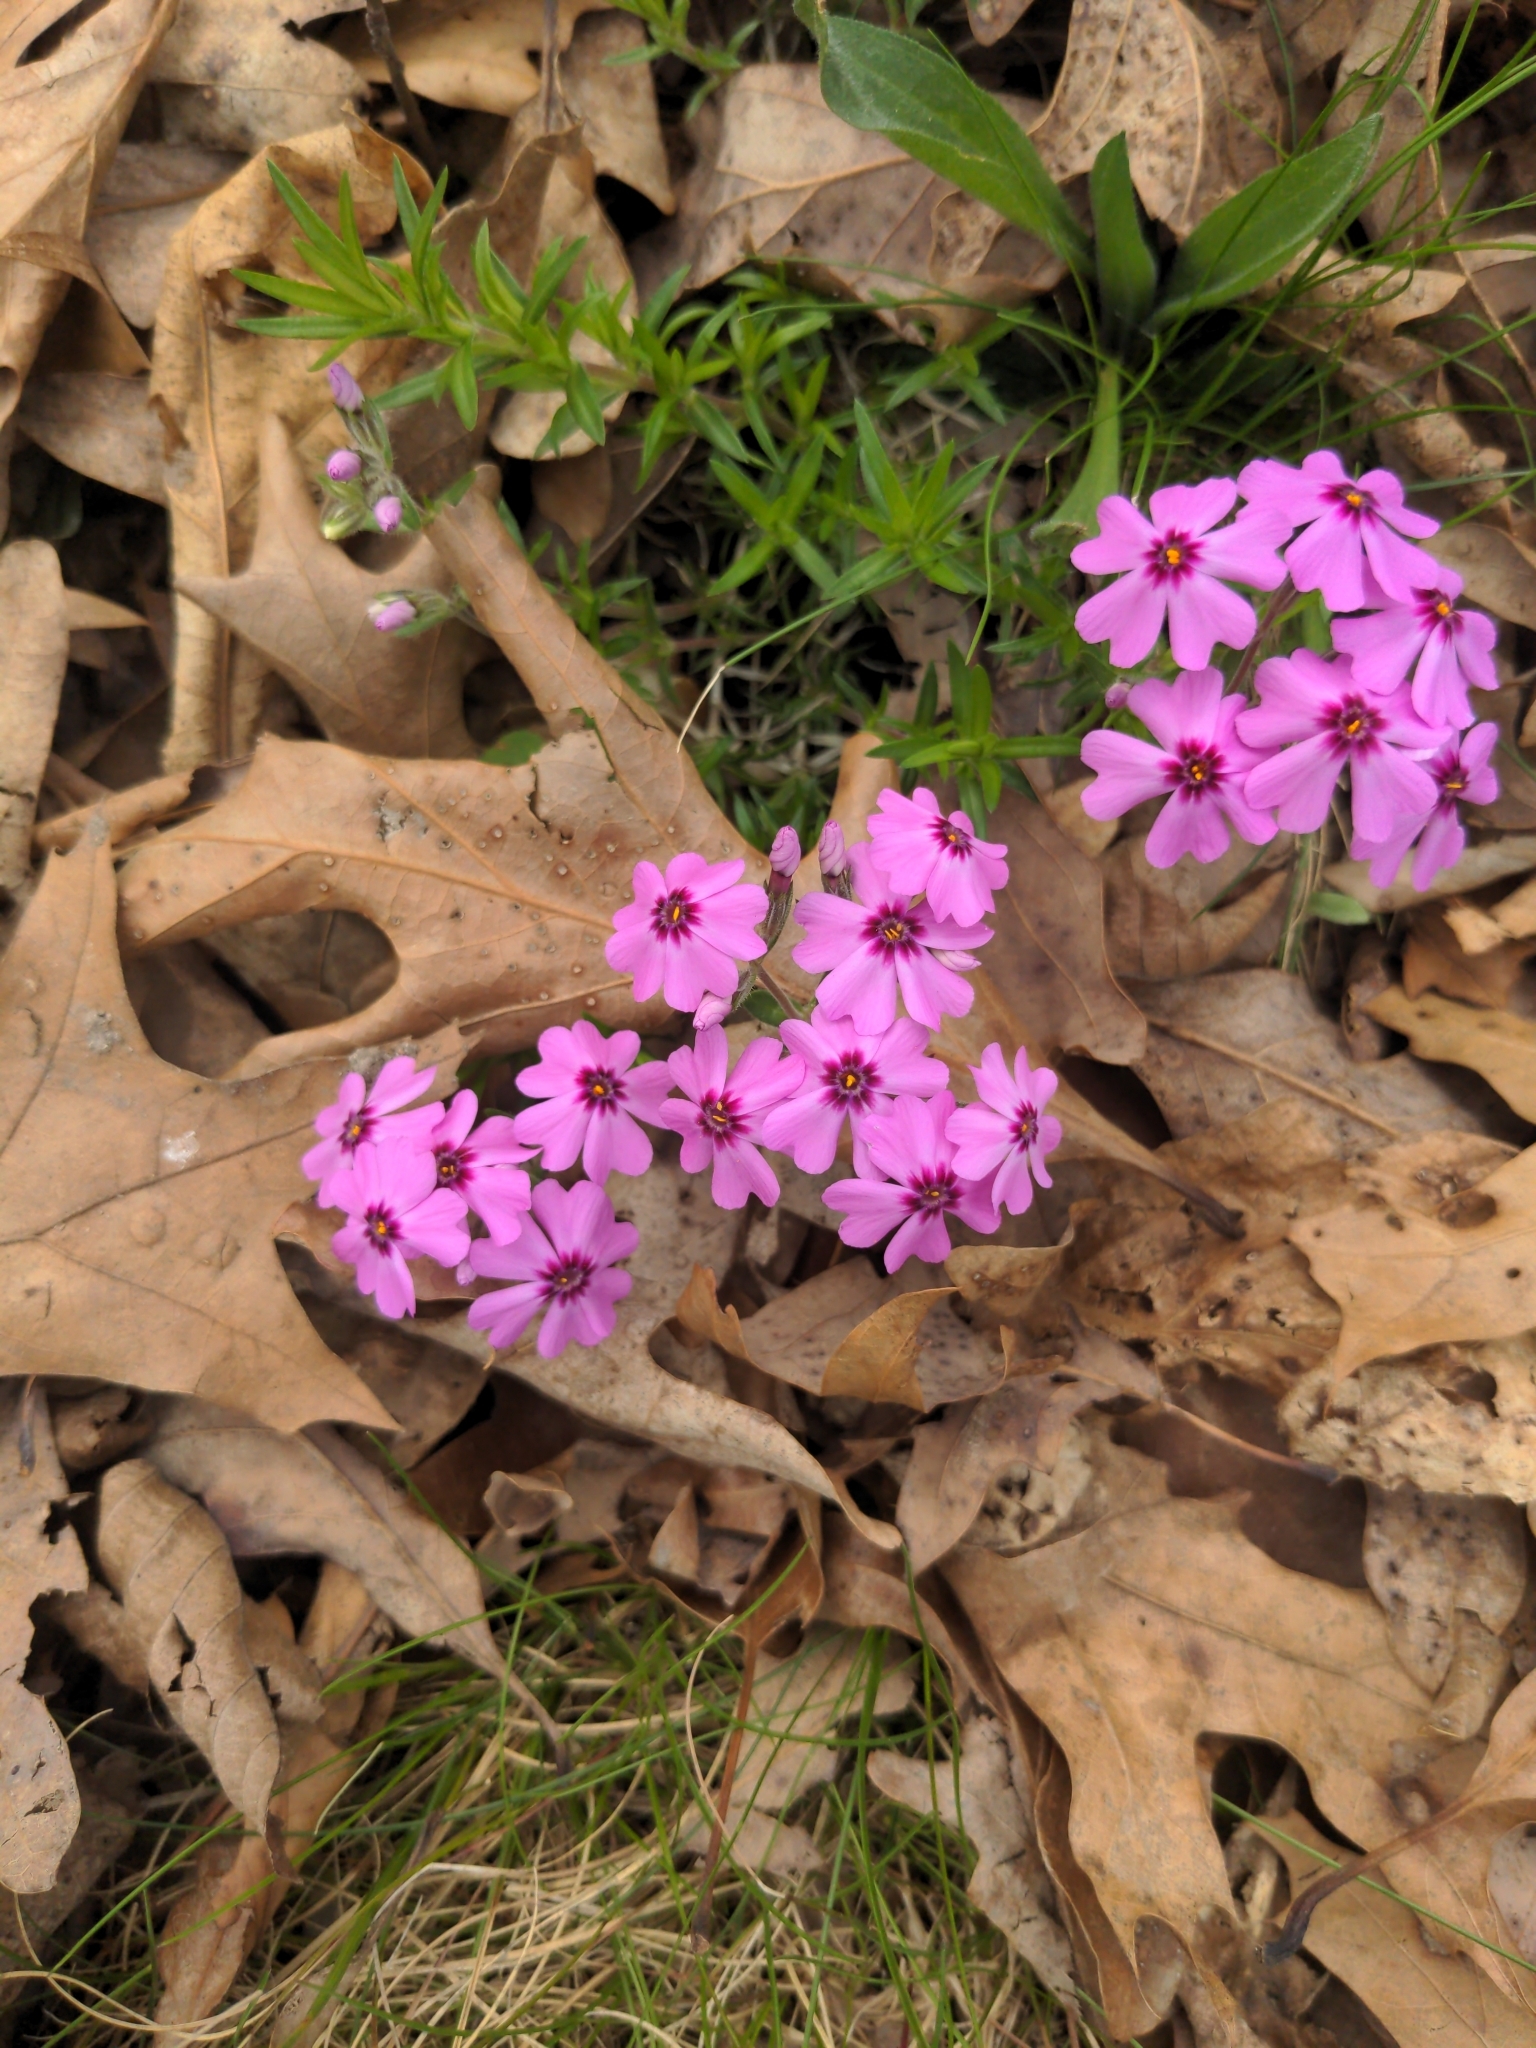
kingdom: Plantae
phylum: Tracheophyta
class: Magnoliopsida
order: Ericales
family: Polemoniaceae
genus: Phlox
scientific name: Phlox subulata
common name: Moss phlox
